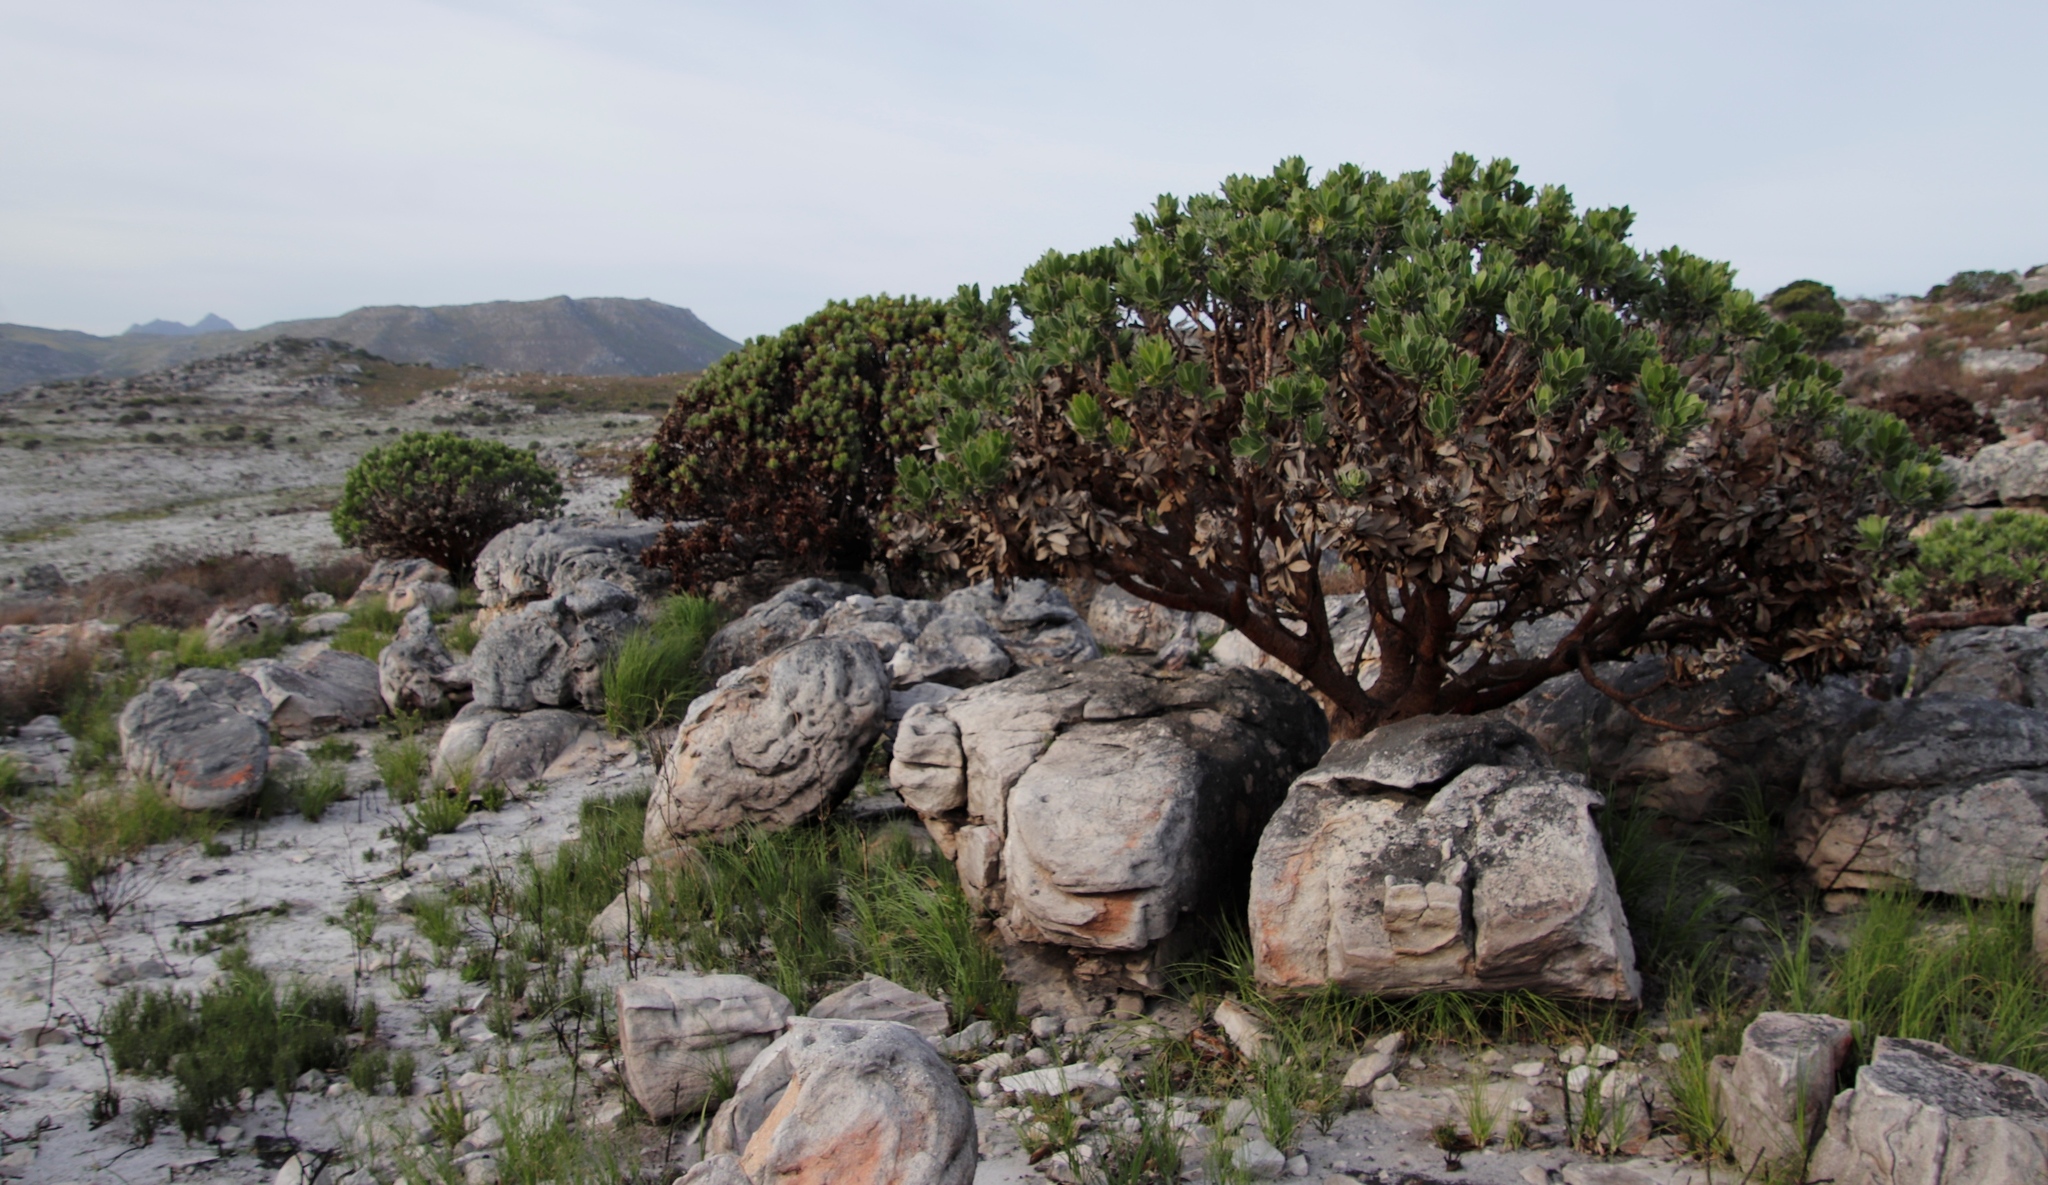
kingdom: Plantae
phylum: Tracheophyta
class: Magnoliopsida
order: Proteales
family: Proteaceae
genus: Leucospermum
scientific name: Leucospermum conocarpodendron
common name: Tree pincushion
